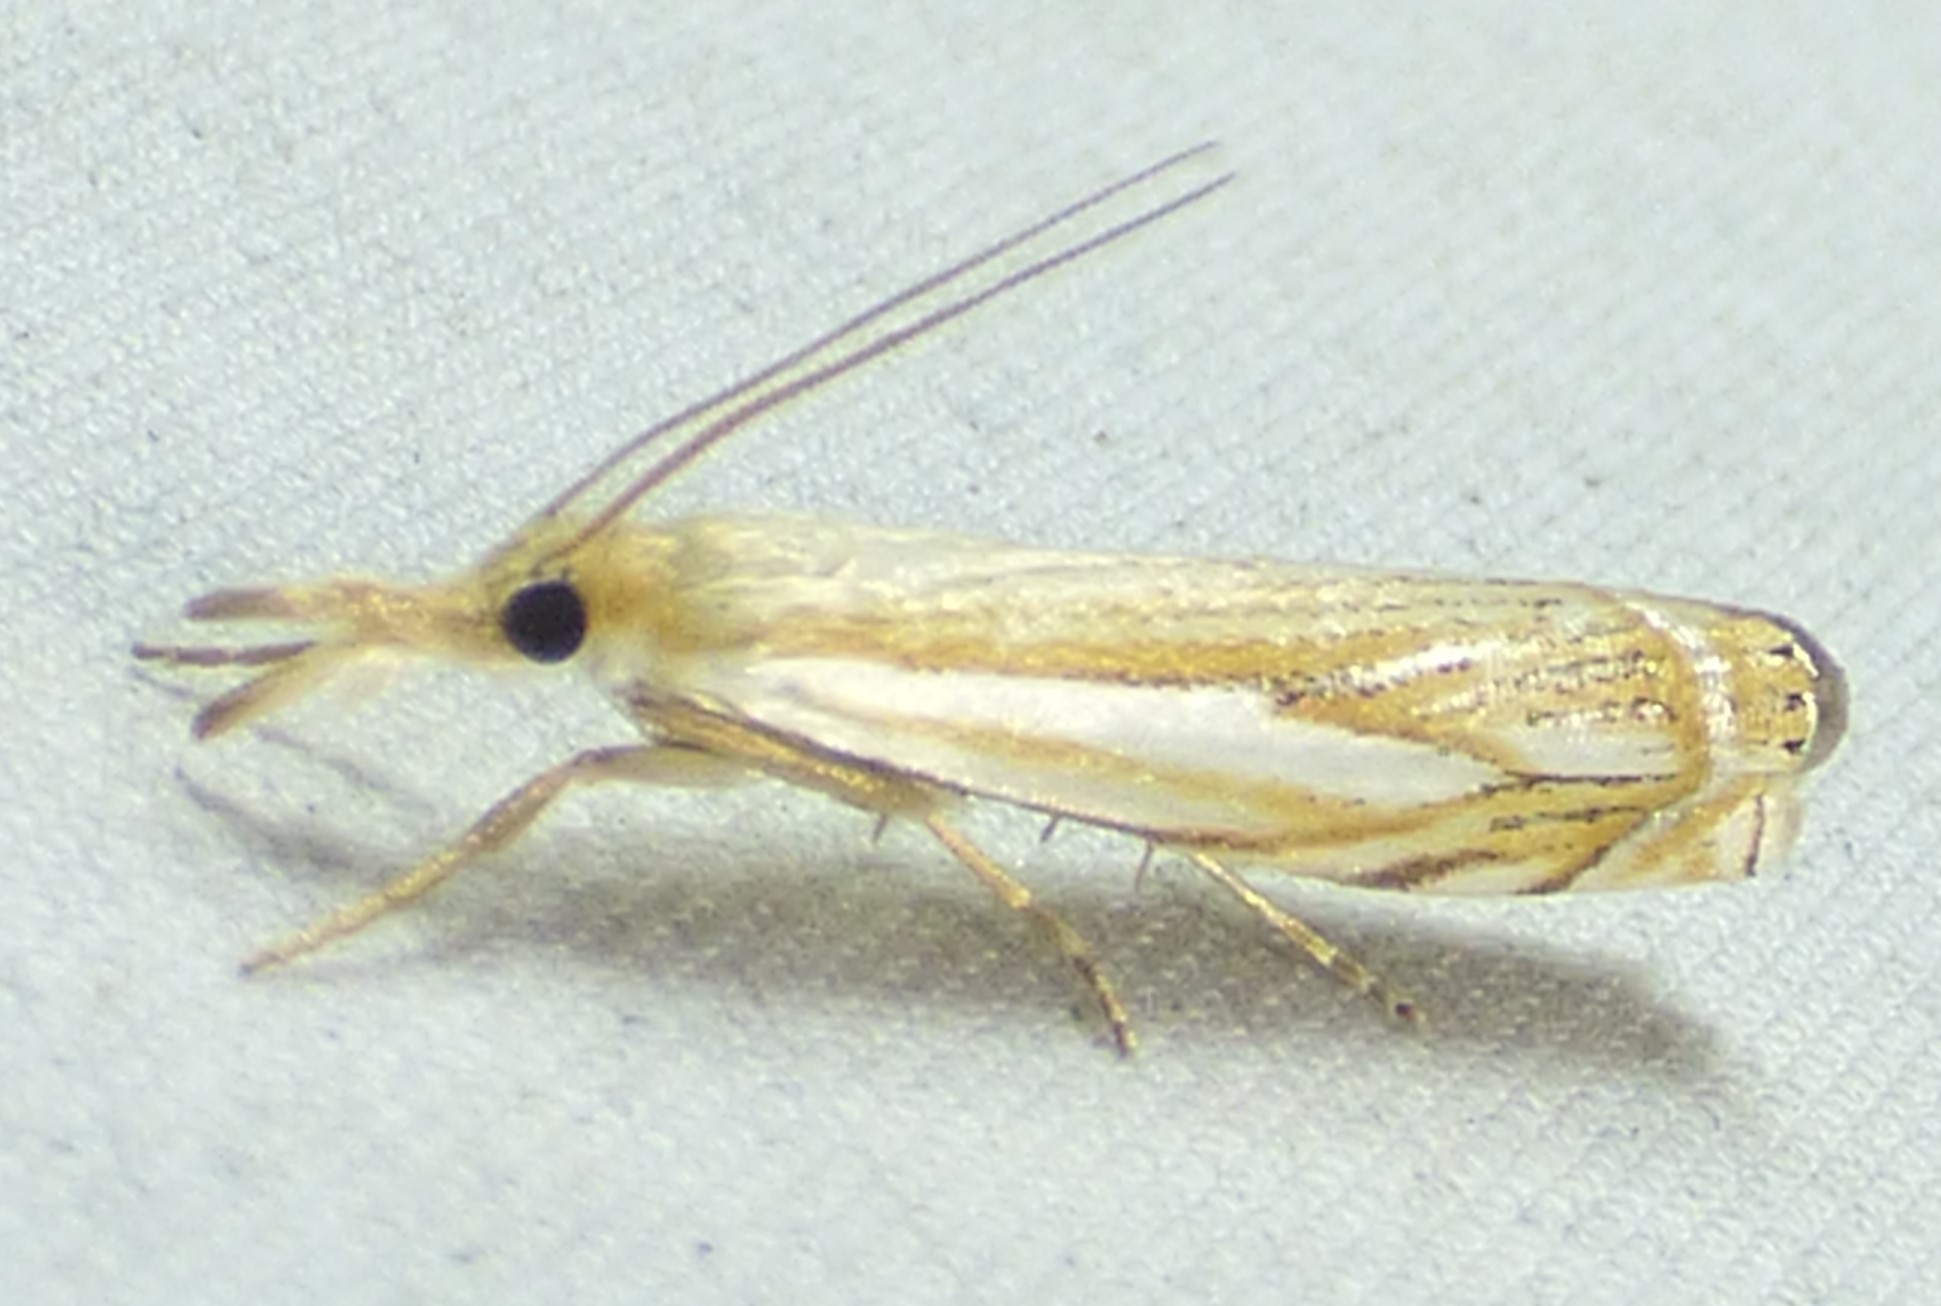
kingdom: Animalia
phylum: Arthropoda
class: Insecta
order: Lepidoptera
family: Crambidae
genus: Crambus
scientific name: Crambus saltuellus
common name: Pasture grass-veneer
